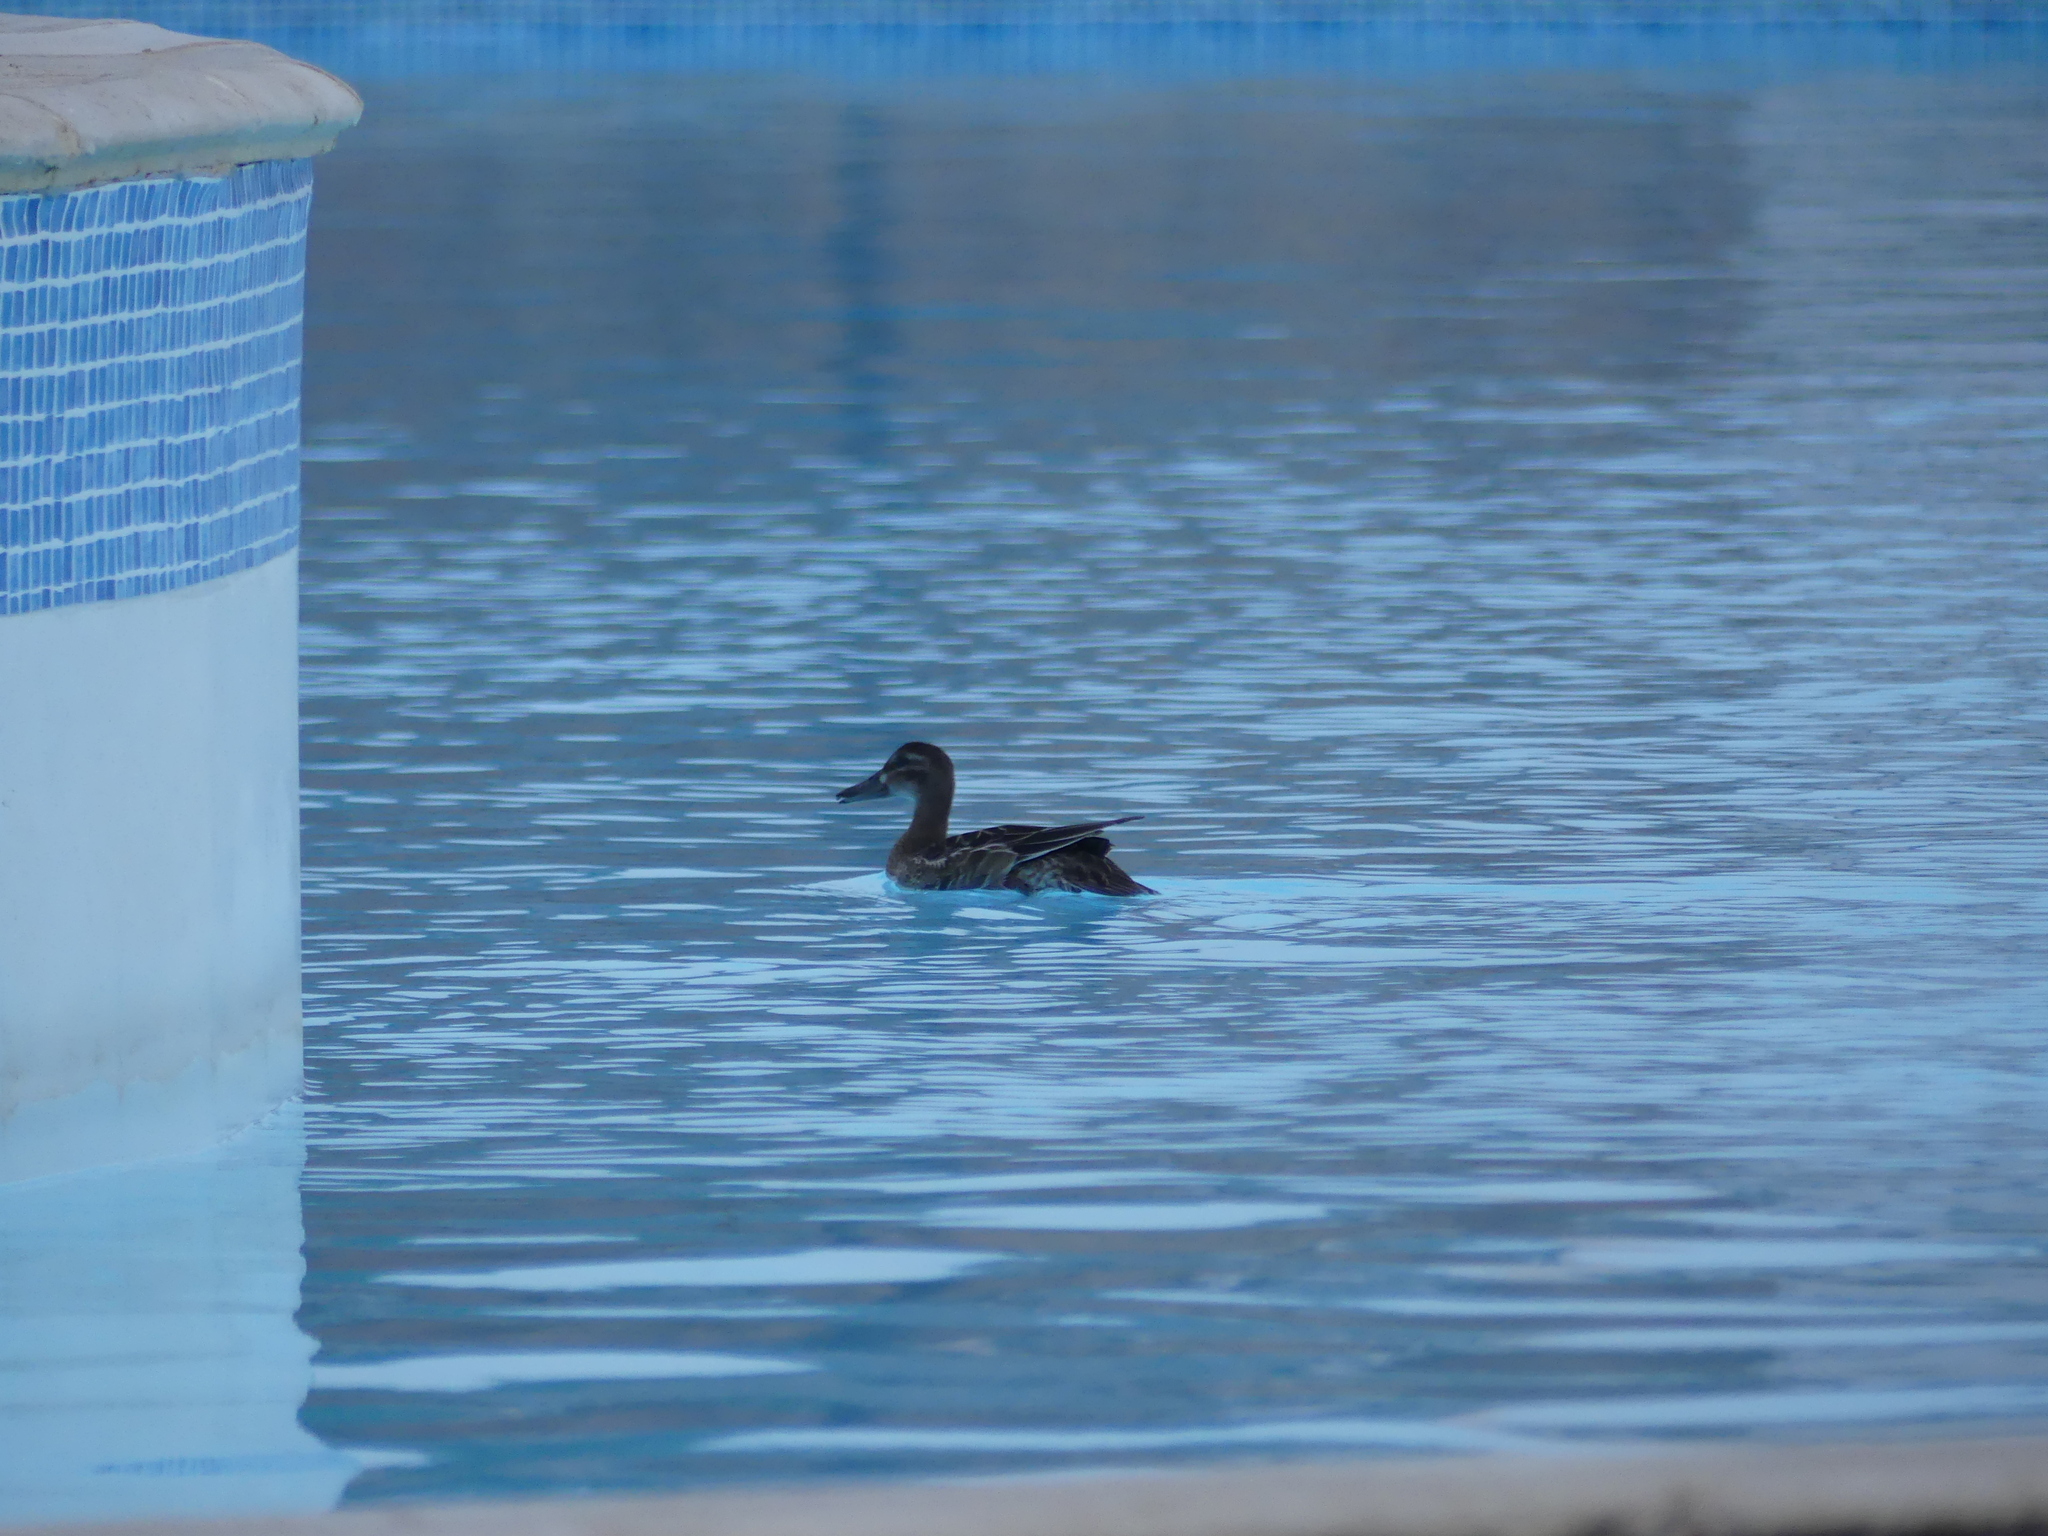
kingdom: Animalia
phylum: Chordata
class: Aves
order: Anseriformes
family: Anatidae
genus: Spatula
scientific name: Spatula querquedula
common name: Garganey
